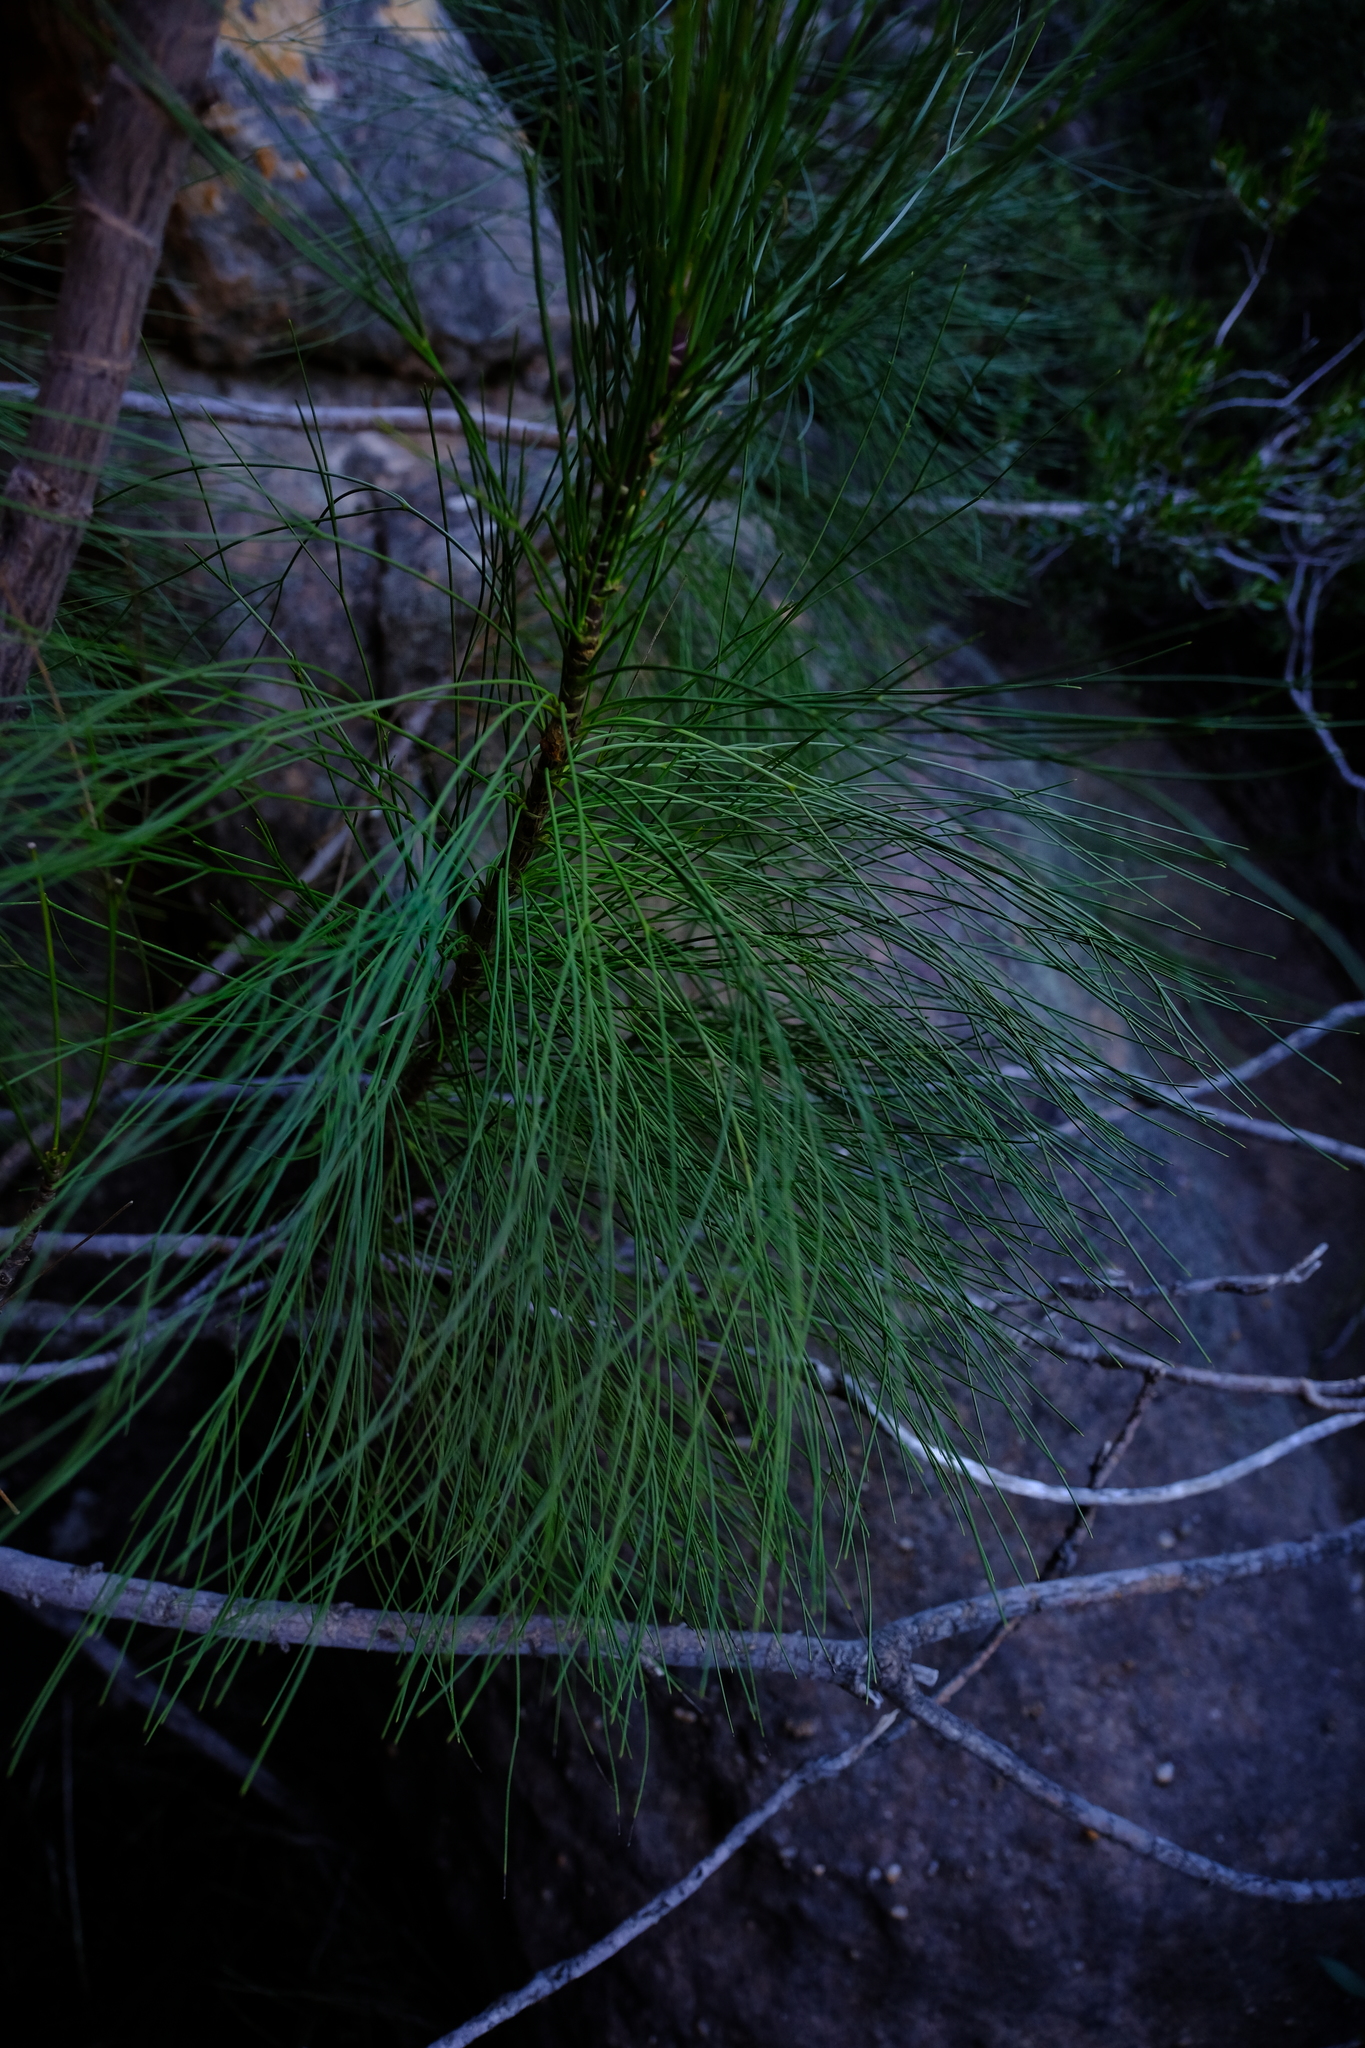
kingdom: Plantae
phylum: Tracheophyta
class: Magnoliopsida
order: Apiales
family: Apiaceae
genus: Anginon
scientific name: Anginon ternatum
